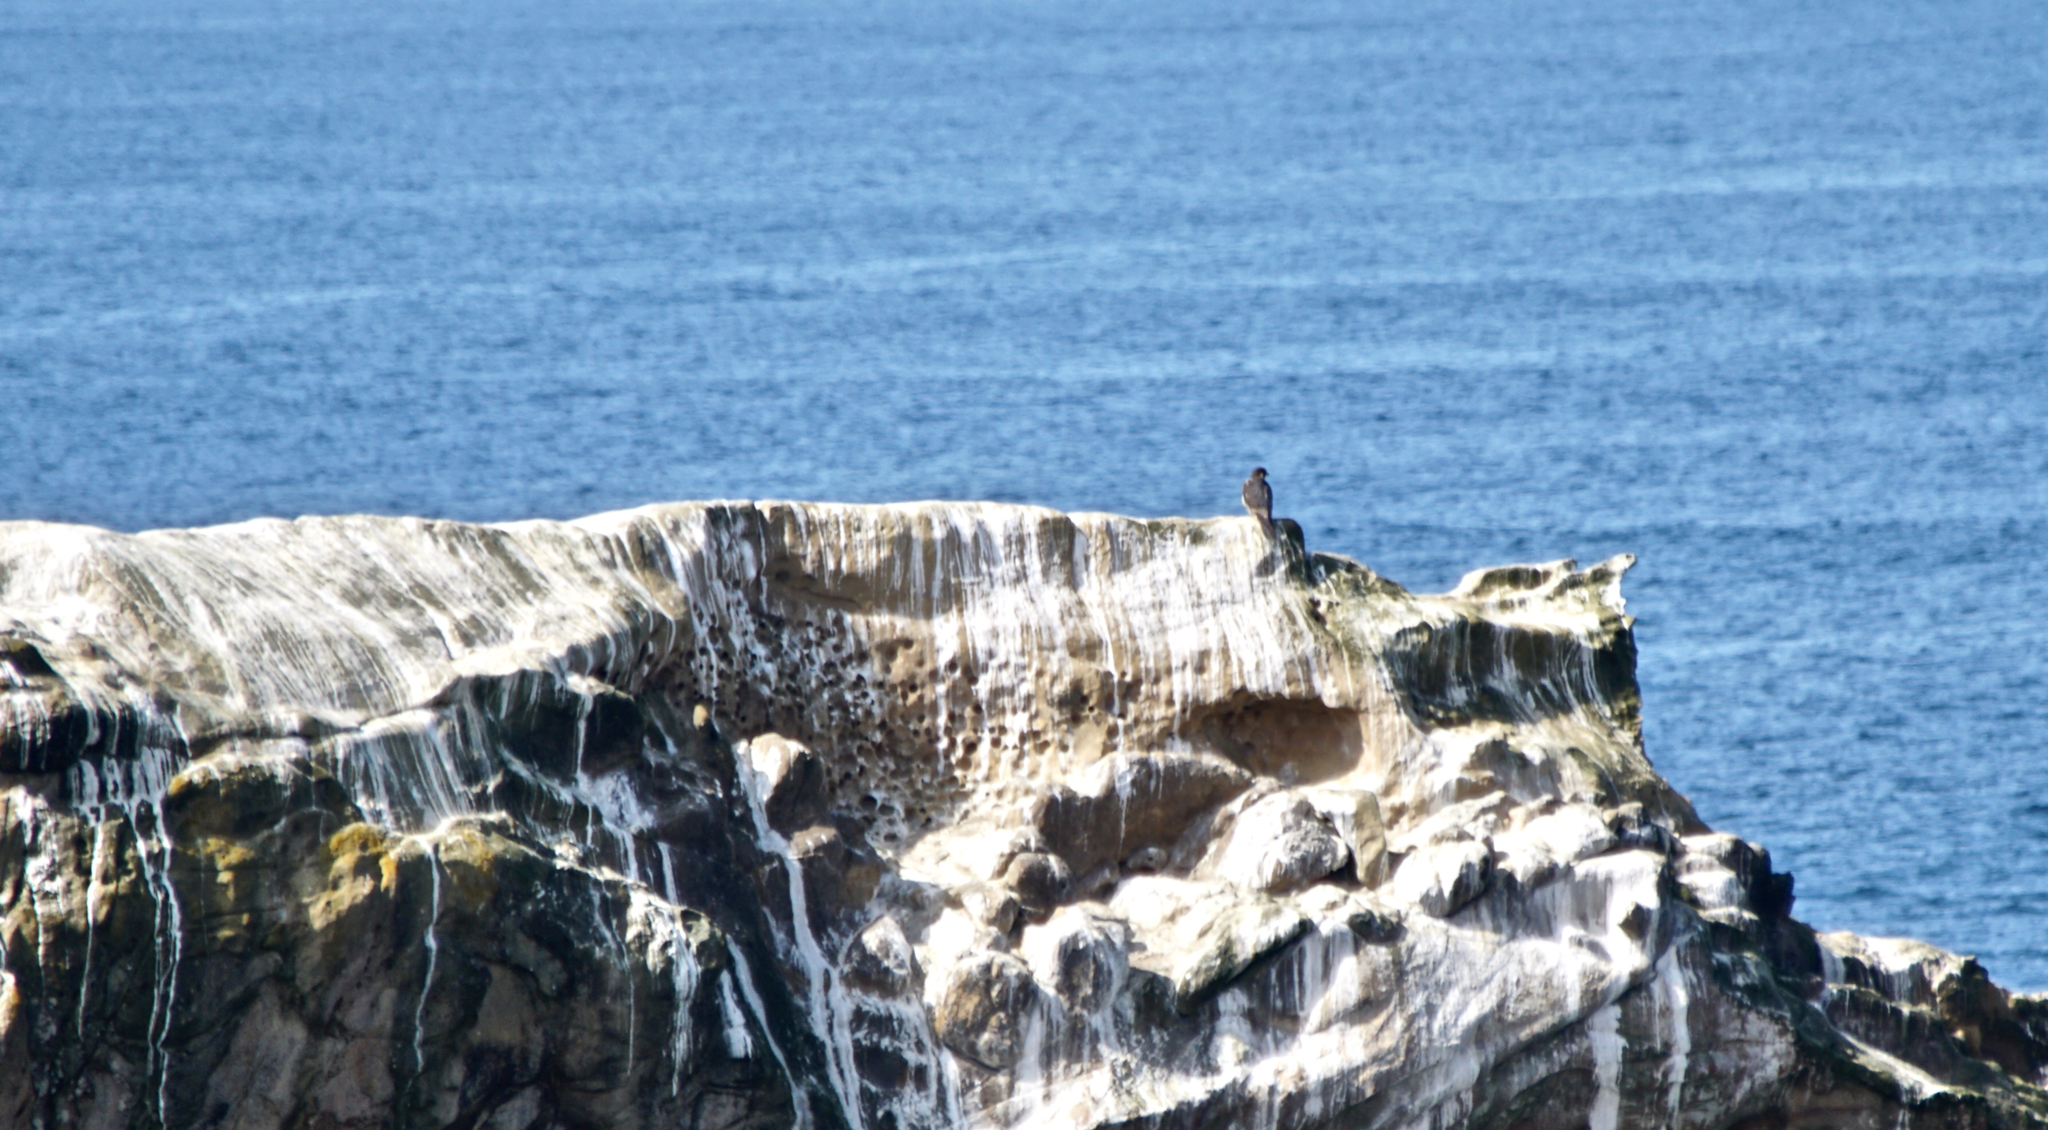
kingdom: Animalia
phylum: Chordata
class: Aves
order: Falconiformes
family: Falconidae
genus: Falco
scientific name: Falco peregrinus
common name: Peregrine falcon
